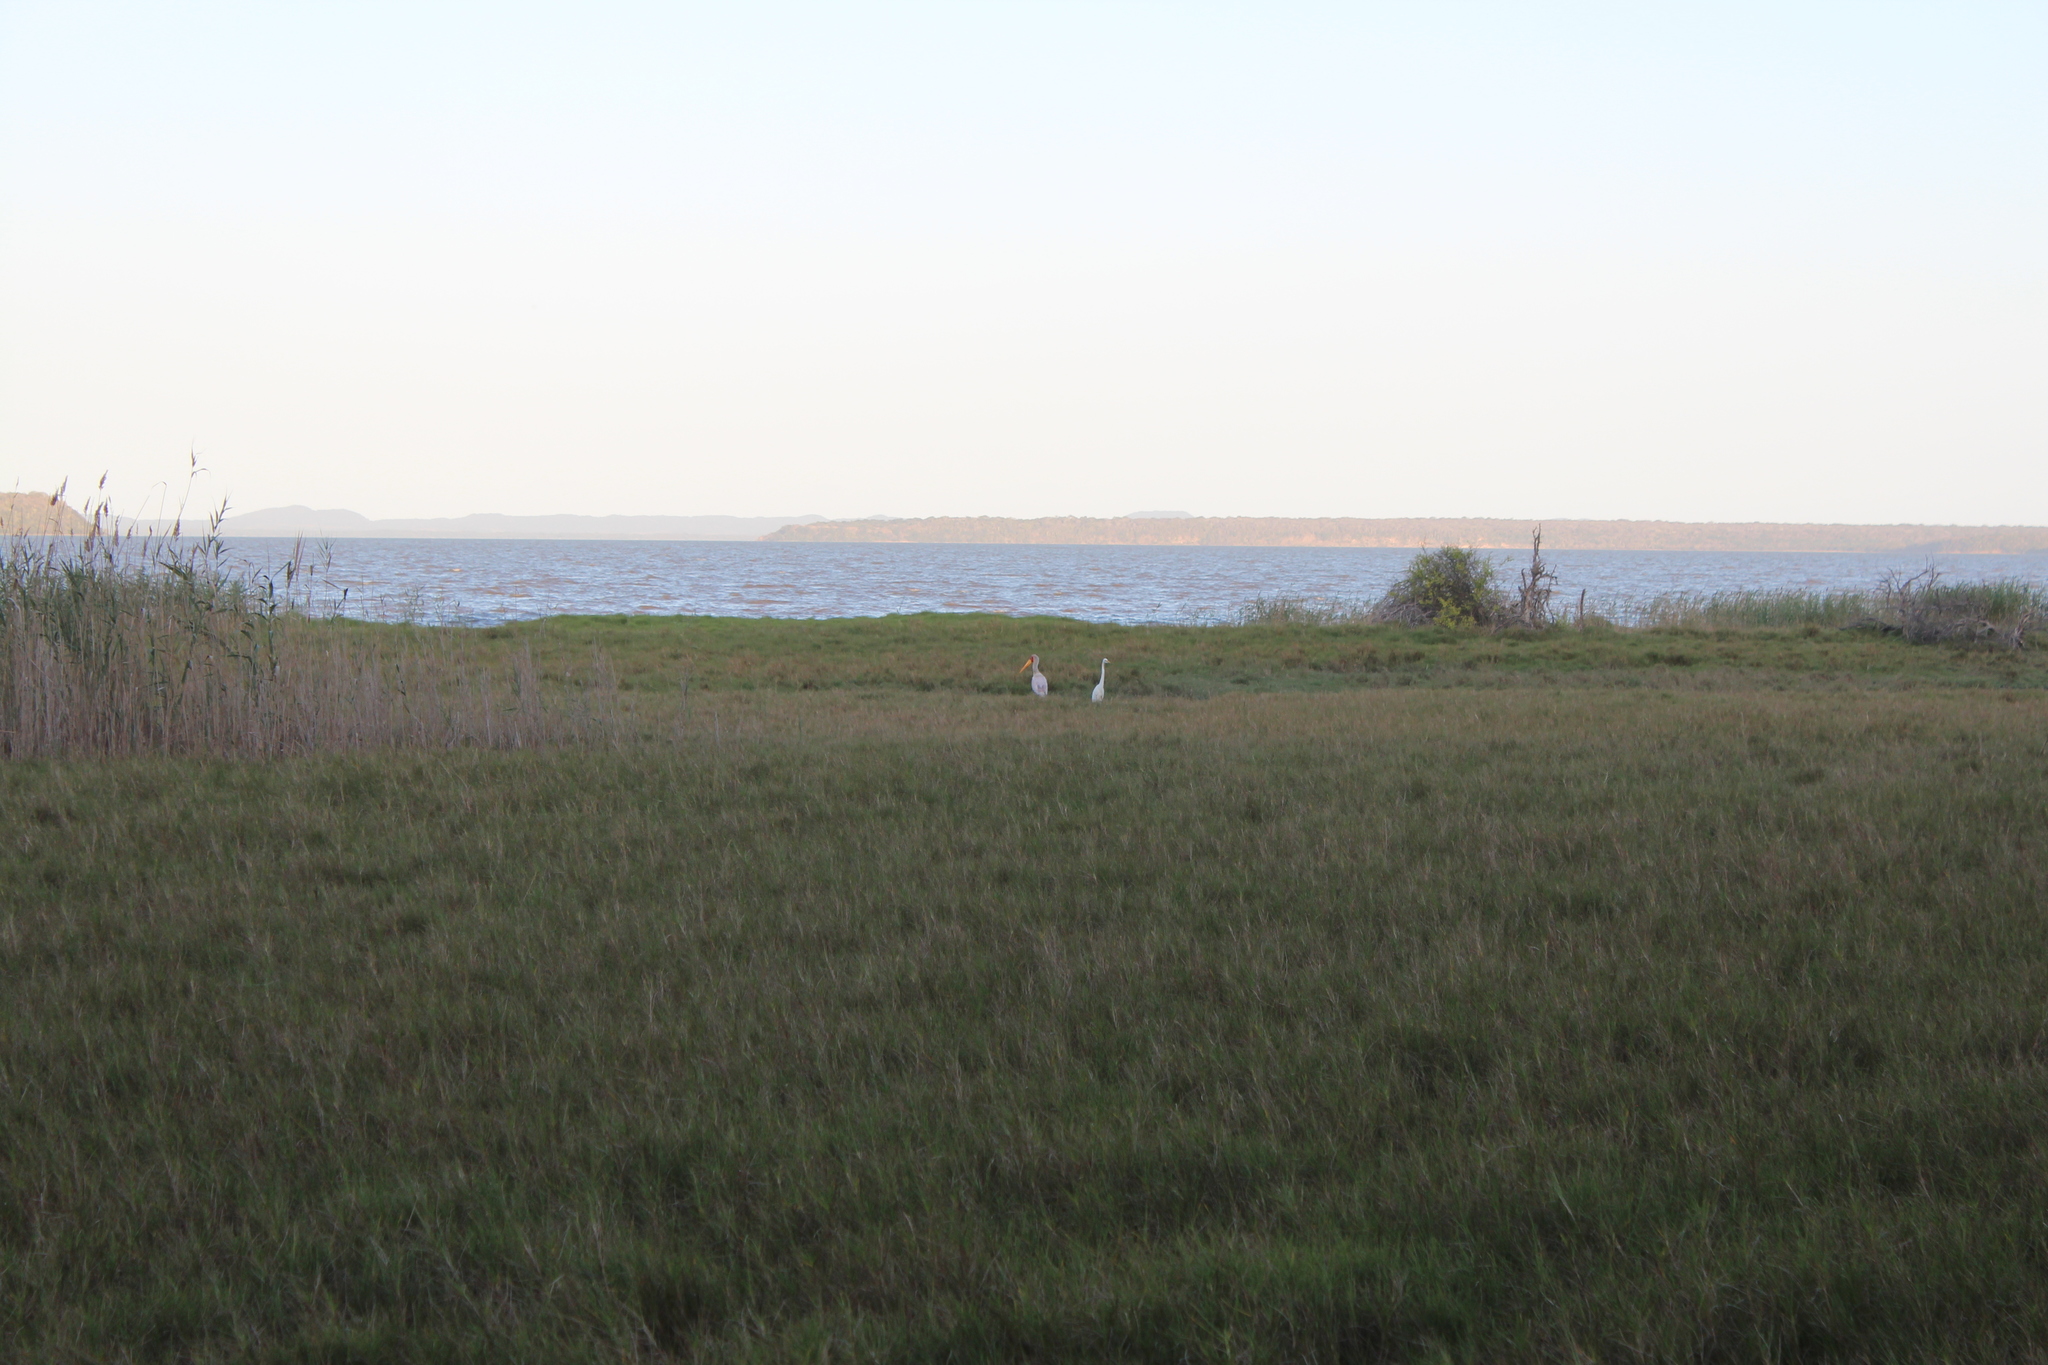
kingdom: Animalia
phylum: Chordata
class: Aves
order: Ciconiiformes
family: Ciconiidae
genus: Mycteria
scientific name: Mycteria ibis
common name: Yellow-billed stork
